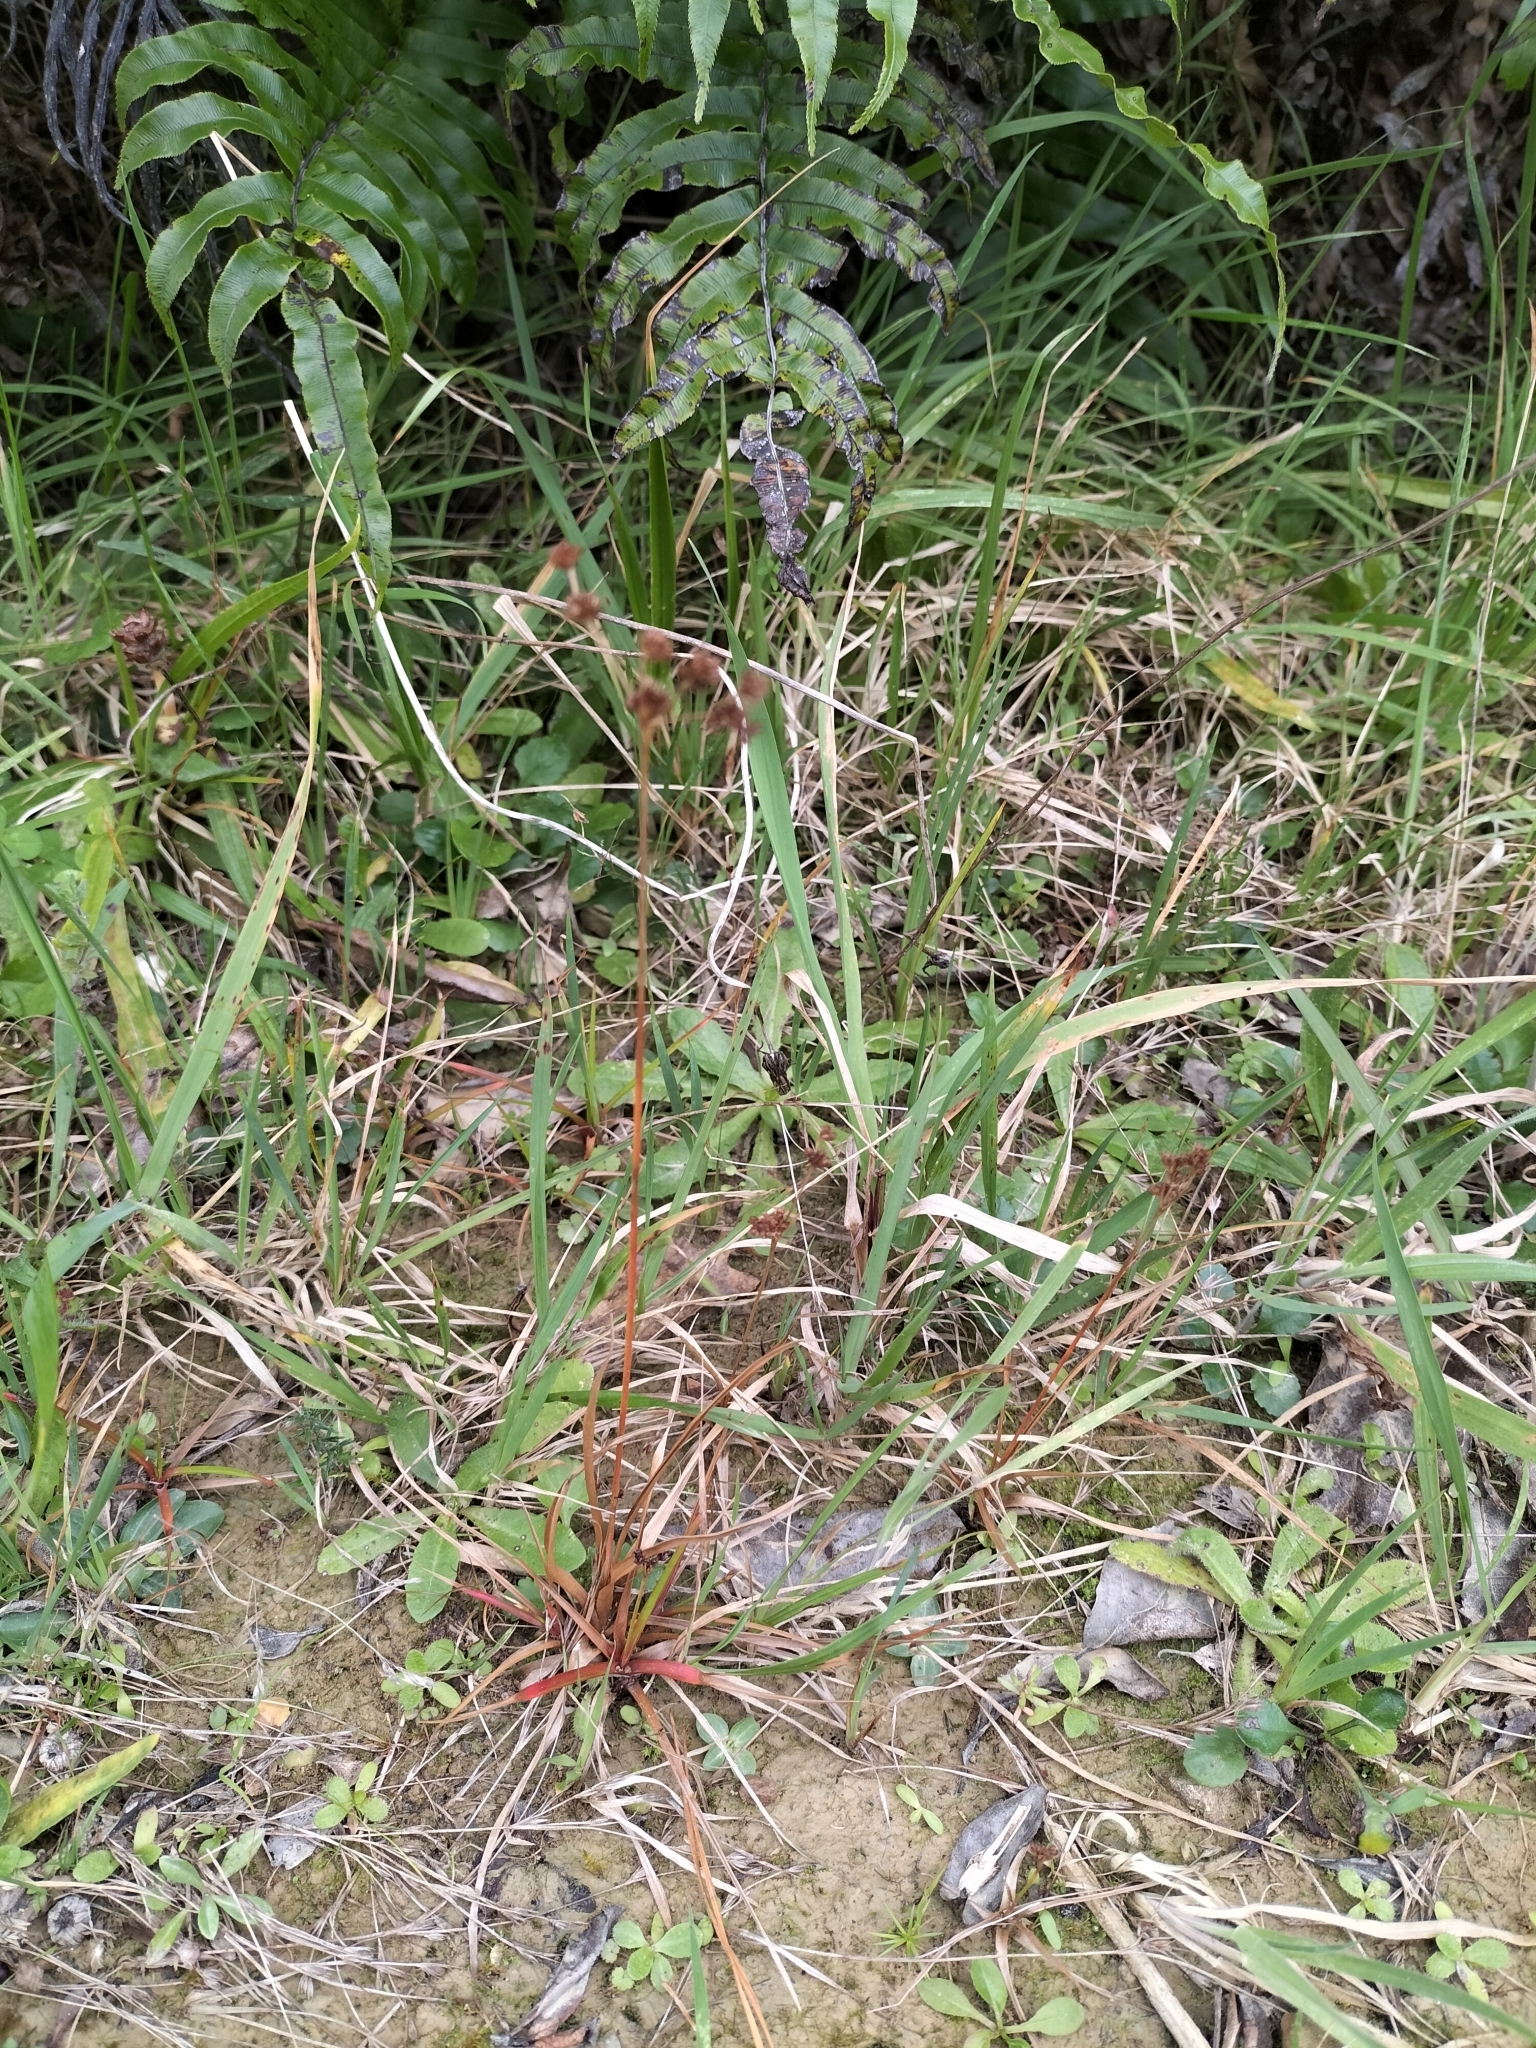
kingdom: Plantae
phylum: Tracheophyta
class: Liliopsida
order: Poales
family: Juncaceae
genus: Juncus
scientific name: Juncus planifolius
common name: Broadleaf rush
